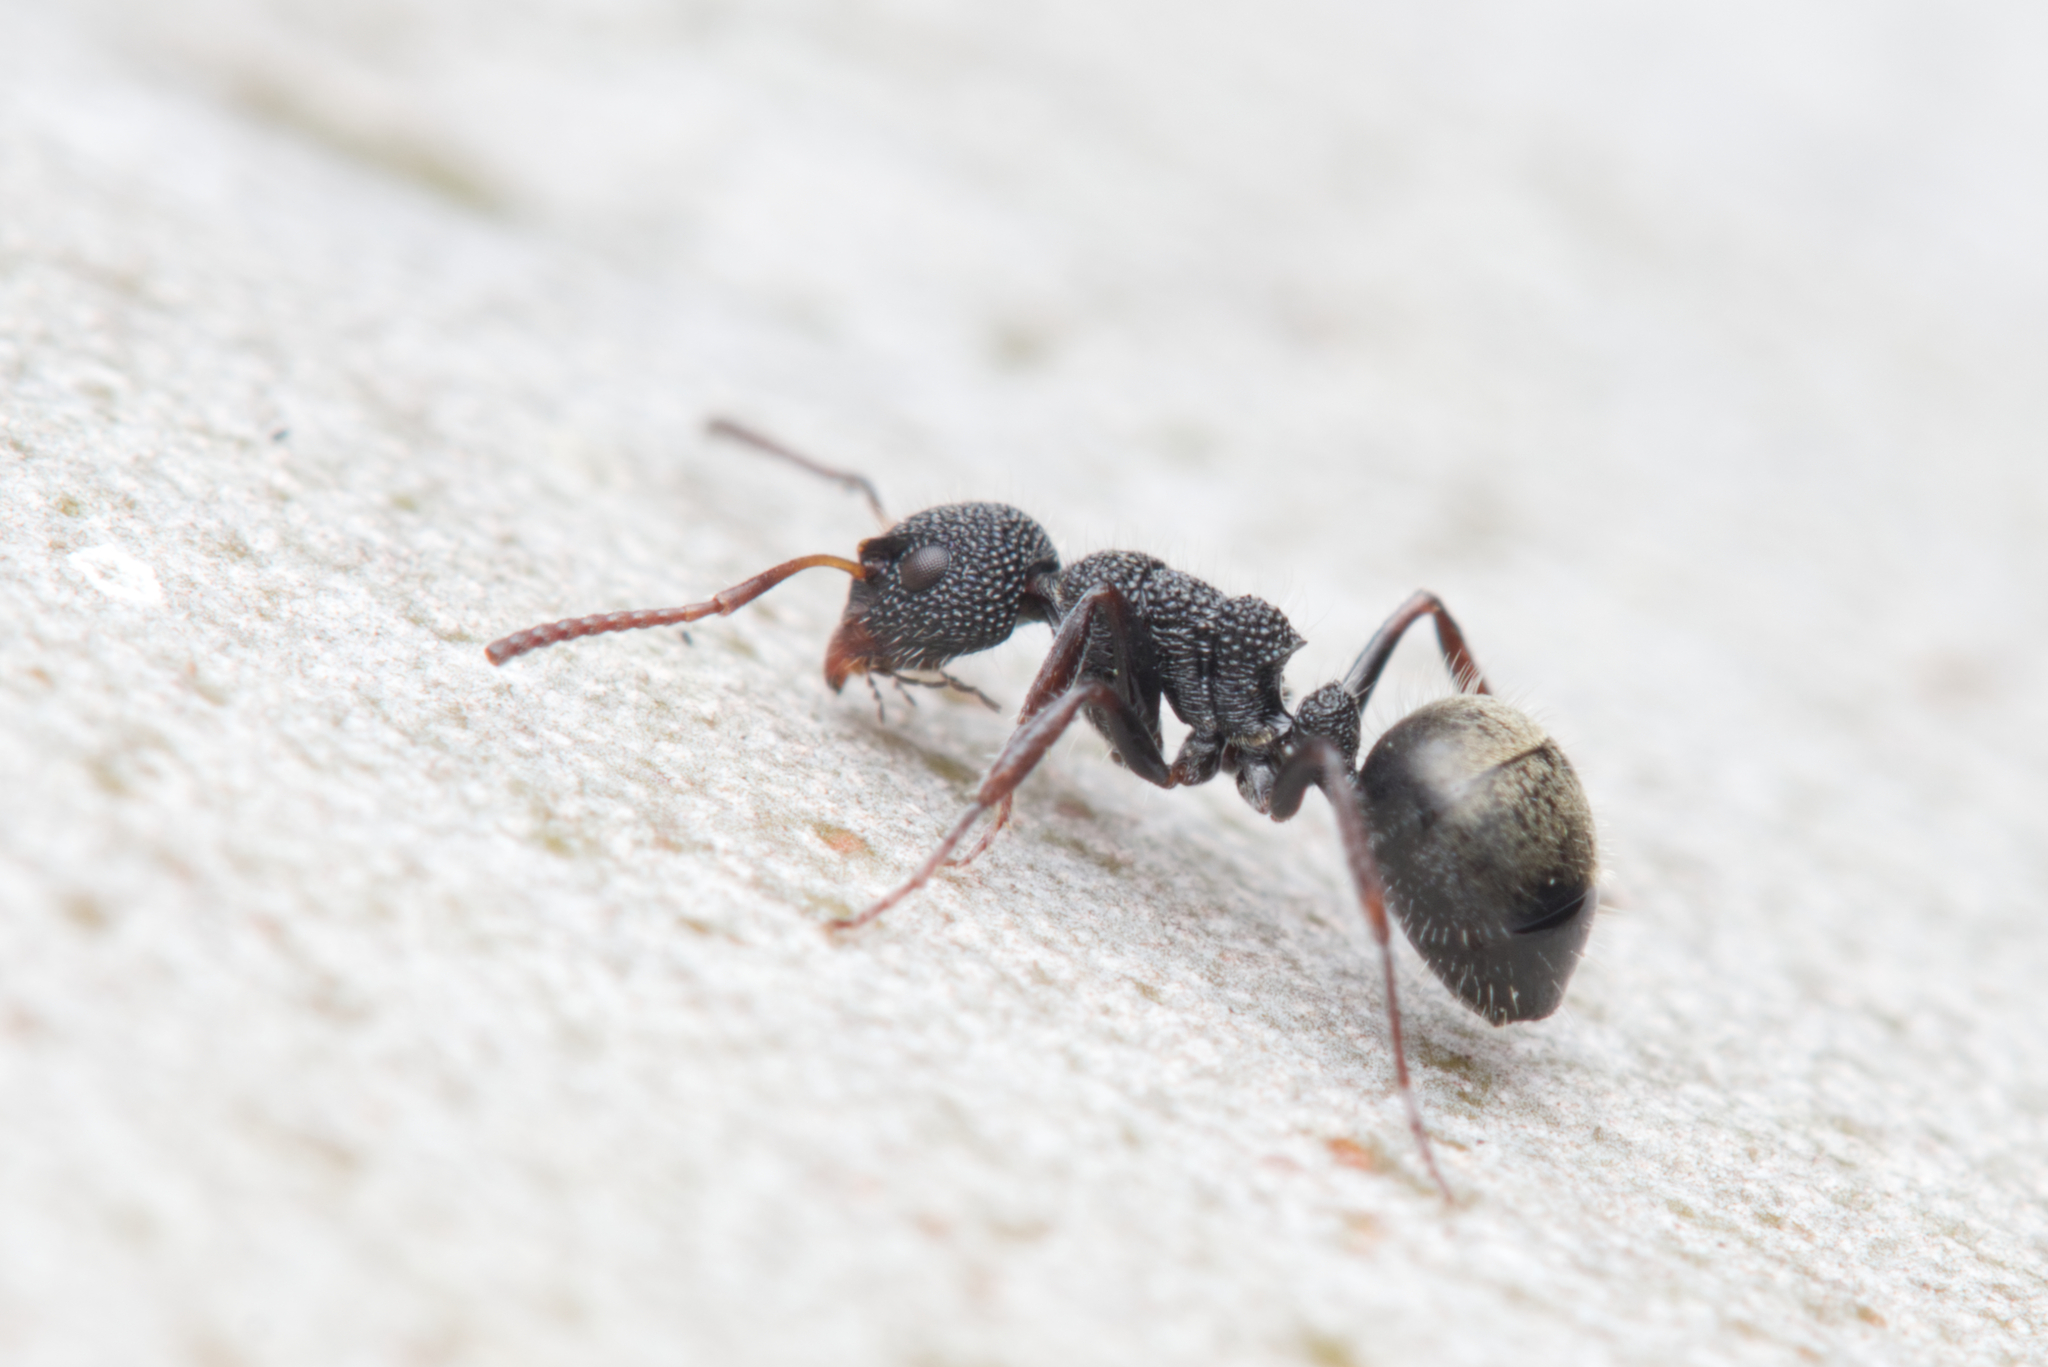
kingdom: Animalia
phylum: Arthropoda
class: Insecta
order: Hymenoptera
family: Formicidae
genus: Dolichoderus
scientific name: Dolichoderus scrobiculatus
